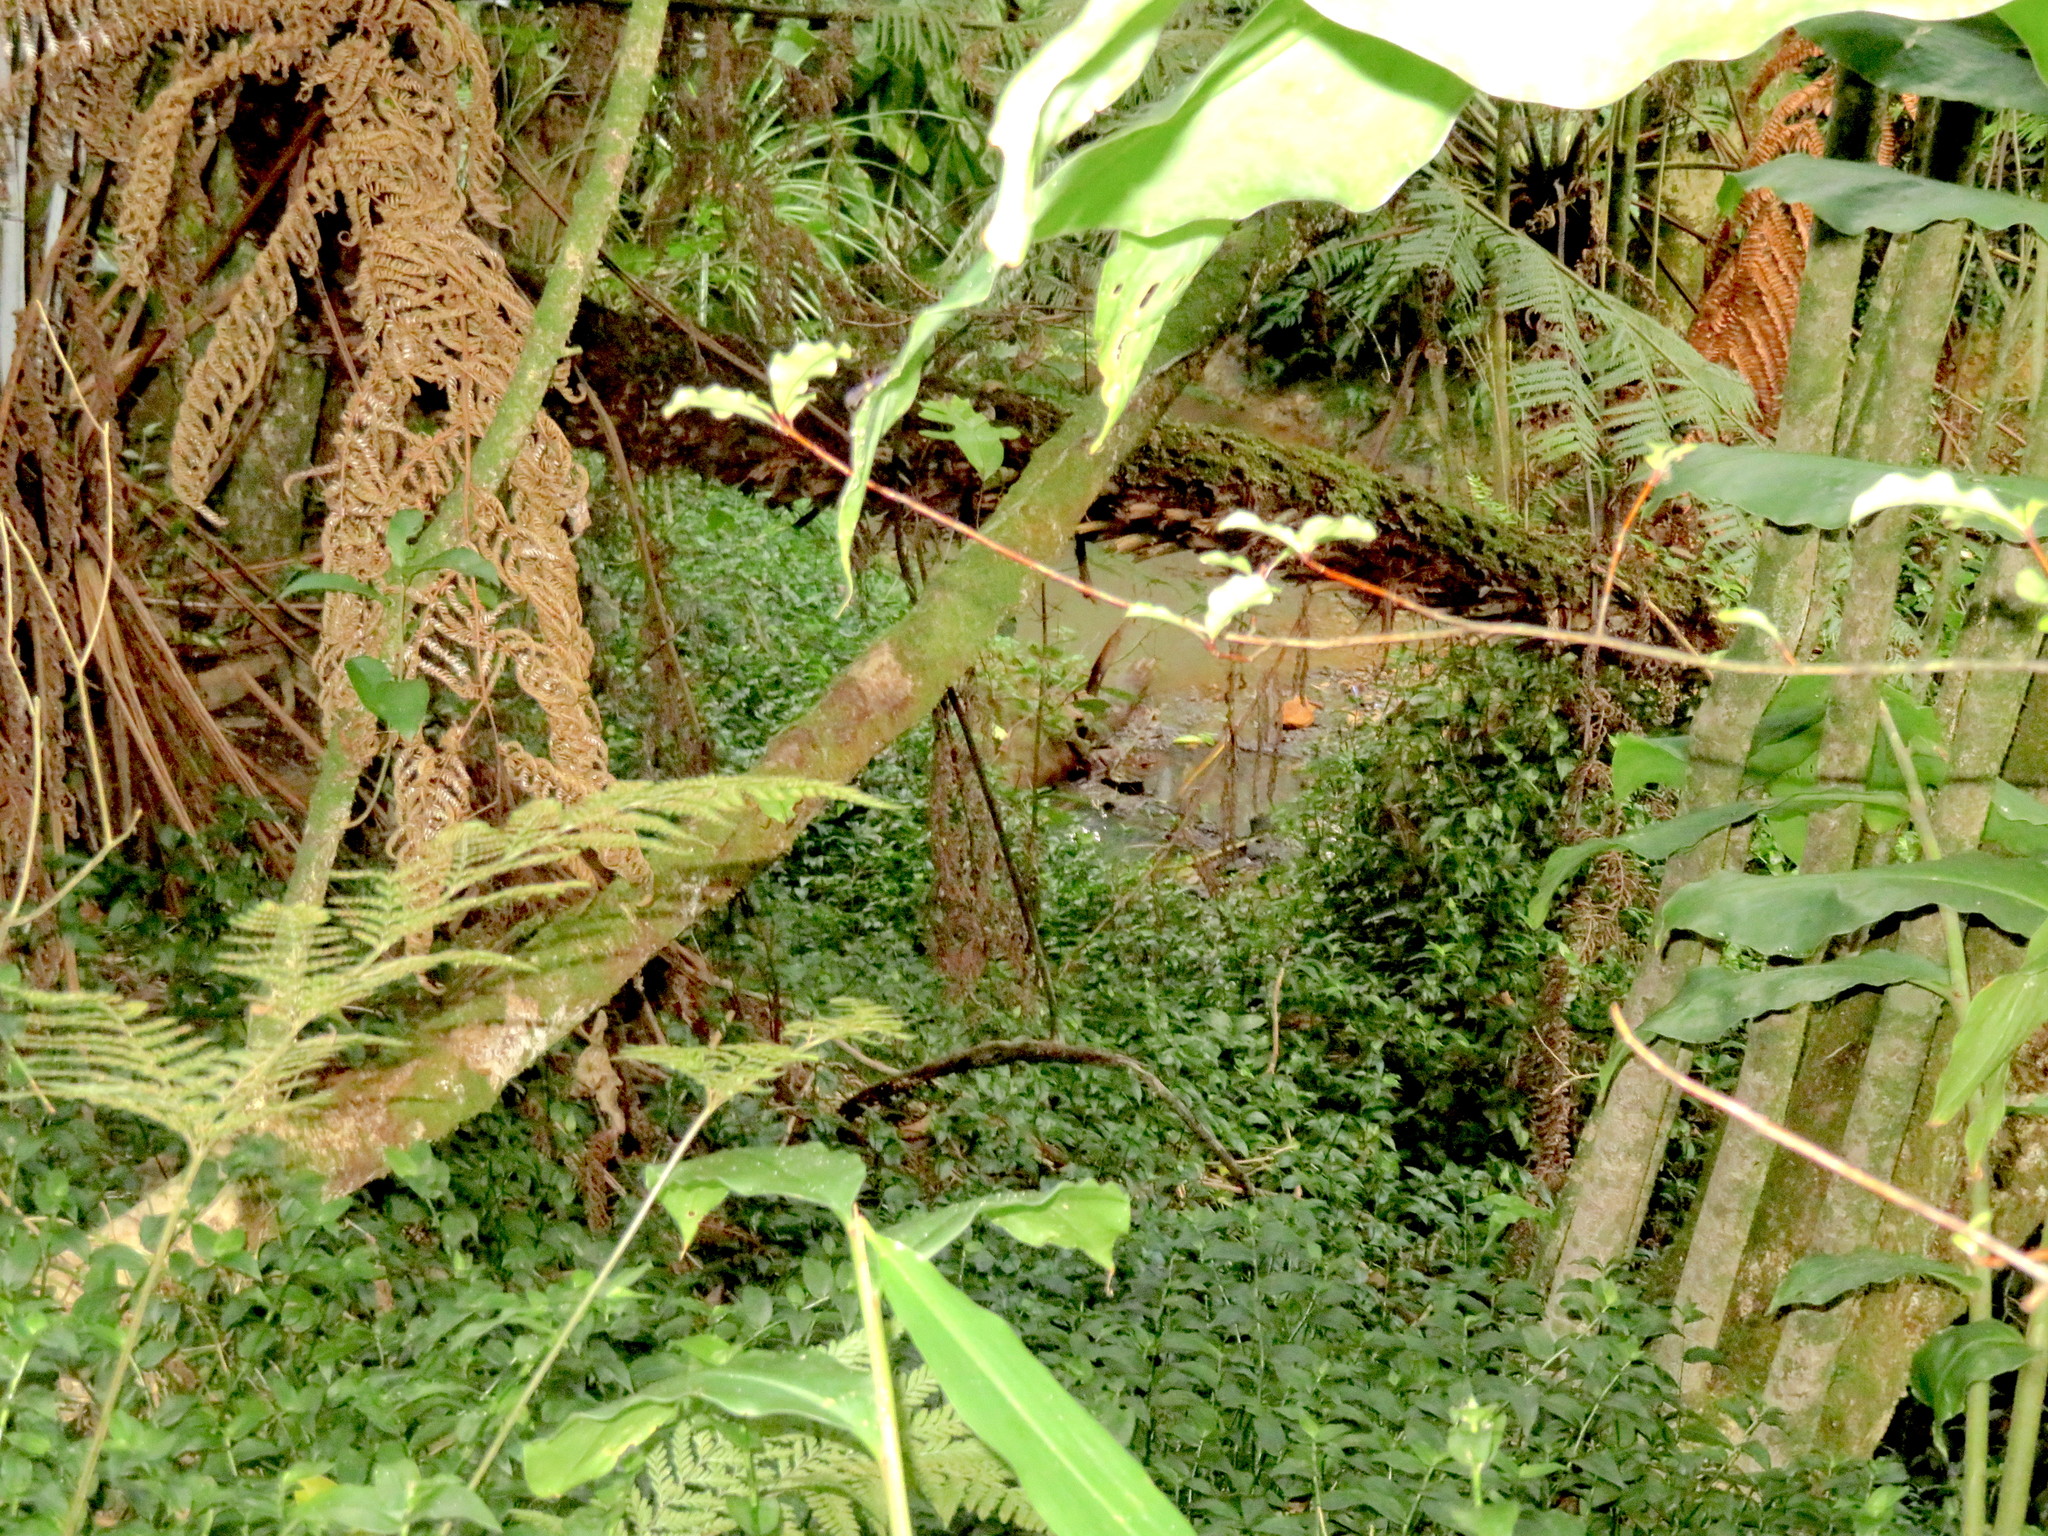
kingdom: Plantae
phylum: Tracheophyta
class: Liliopsida
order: Commelinales
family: Commelinaceae
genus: Tradescantia
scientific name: Tradescantia fluminensis
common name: Wandering-jew
